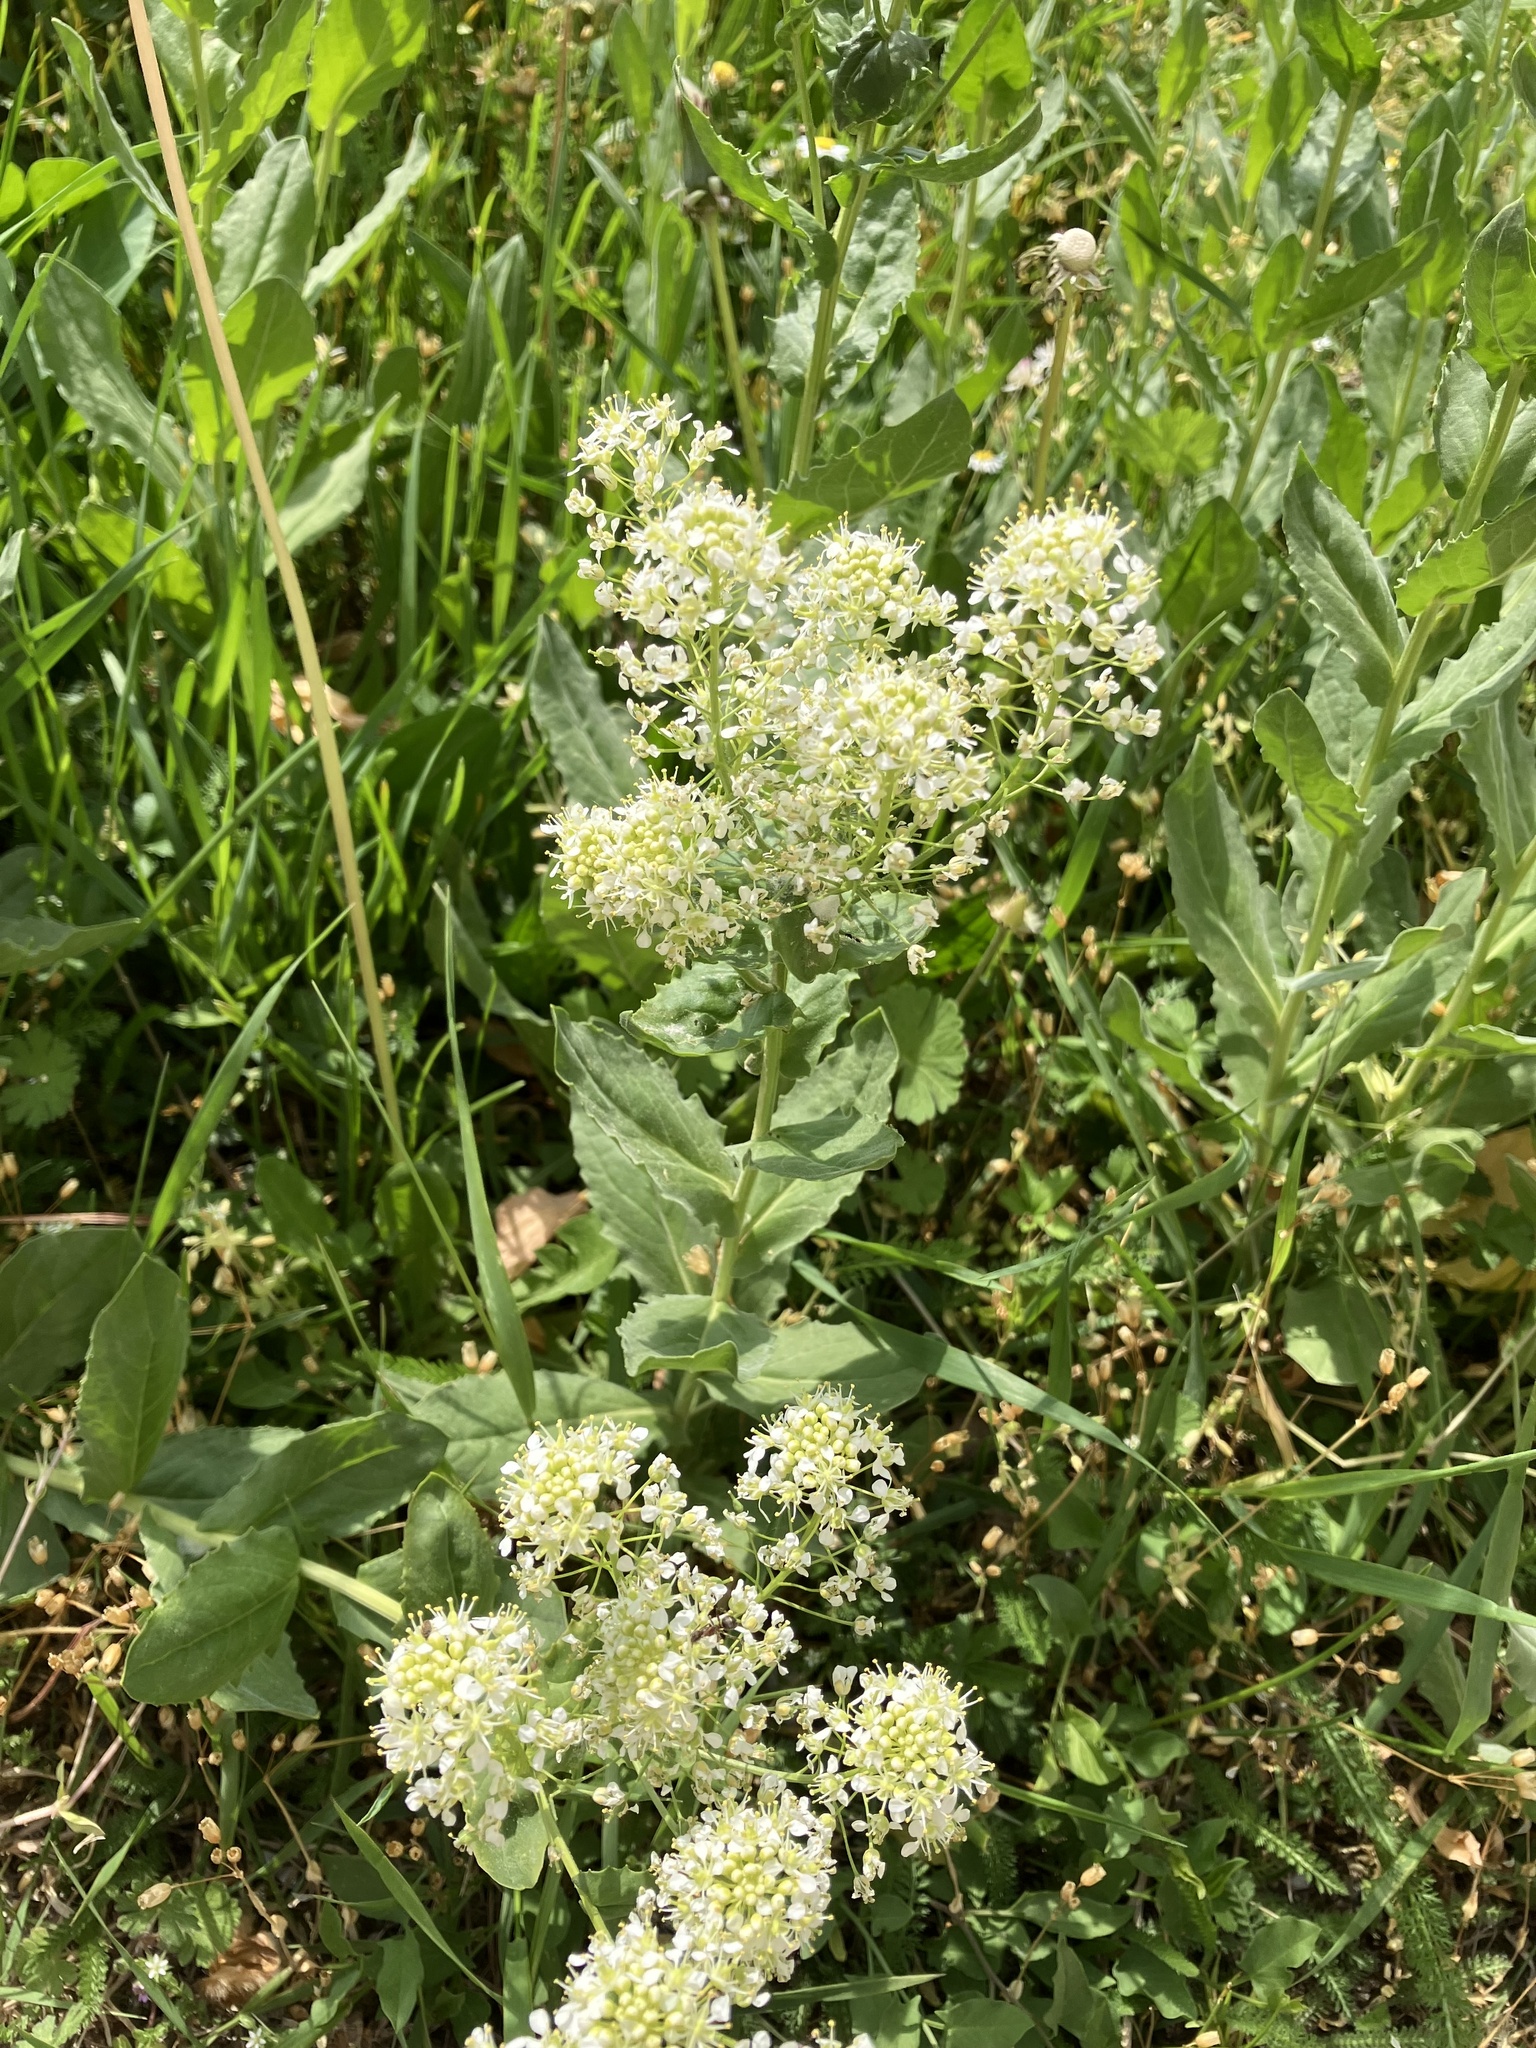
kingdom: Plantae
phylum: Tracheophyta
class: Magnoliopsida
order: Brassicales
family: Brassicaceae
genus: Lepidium
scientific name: Lepidium draba
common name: Hoary cress
